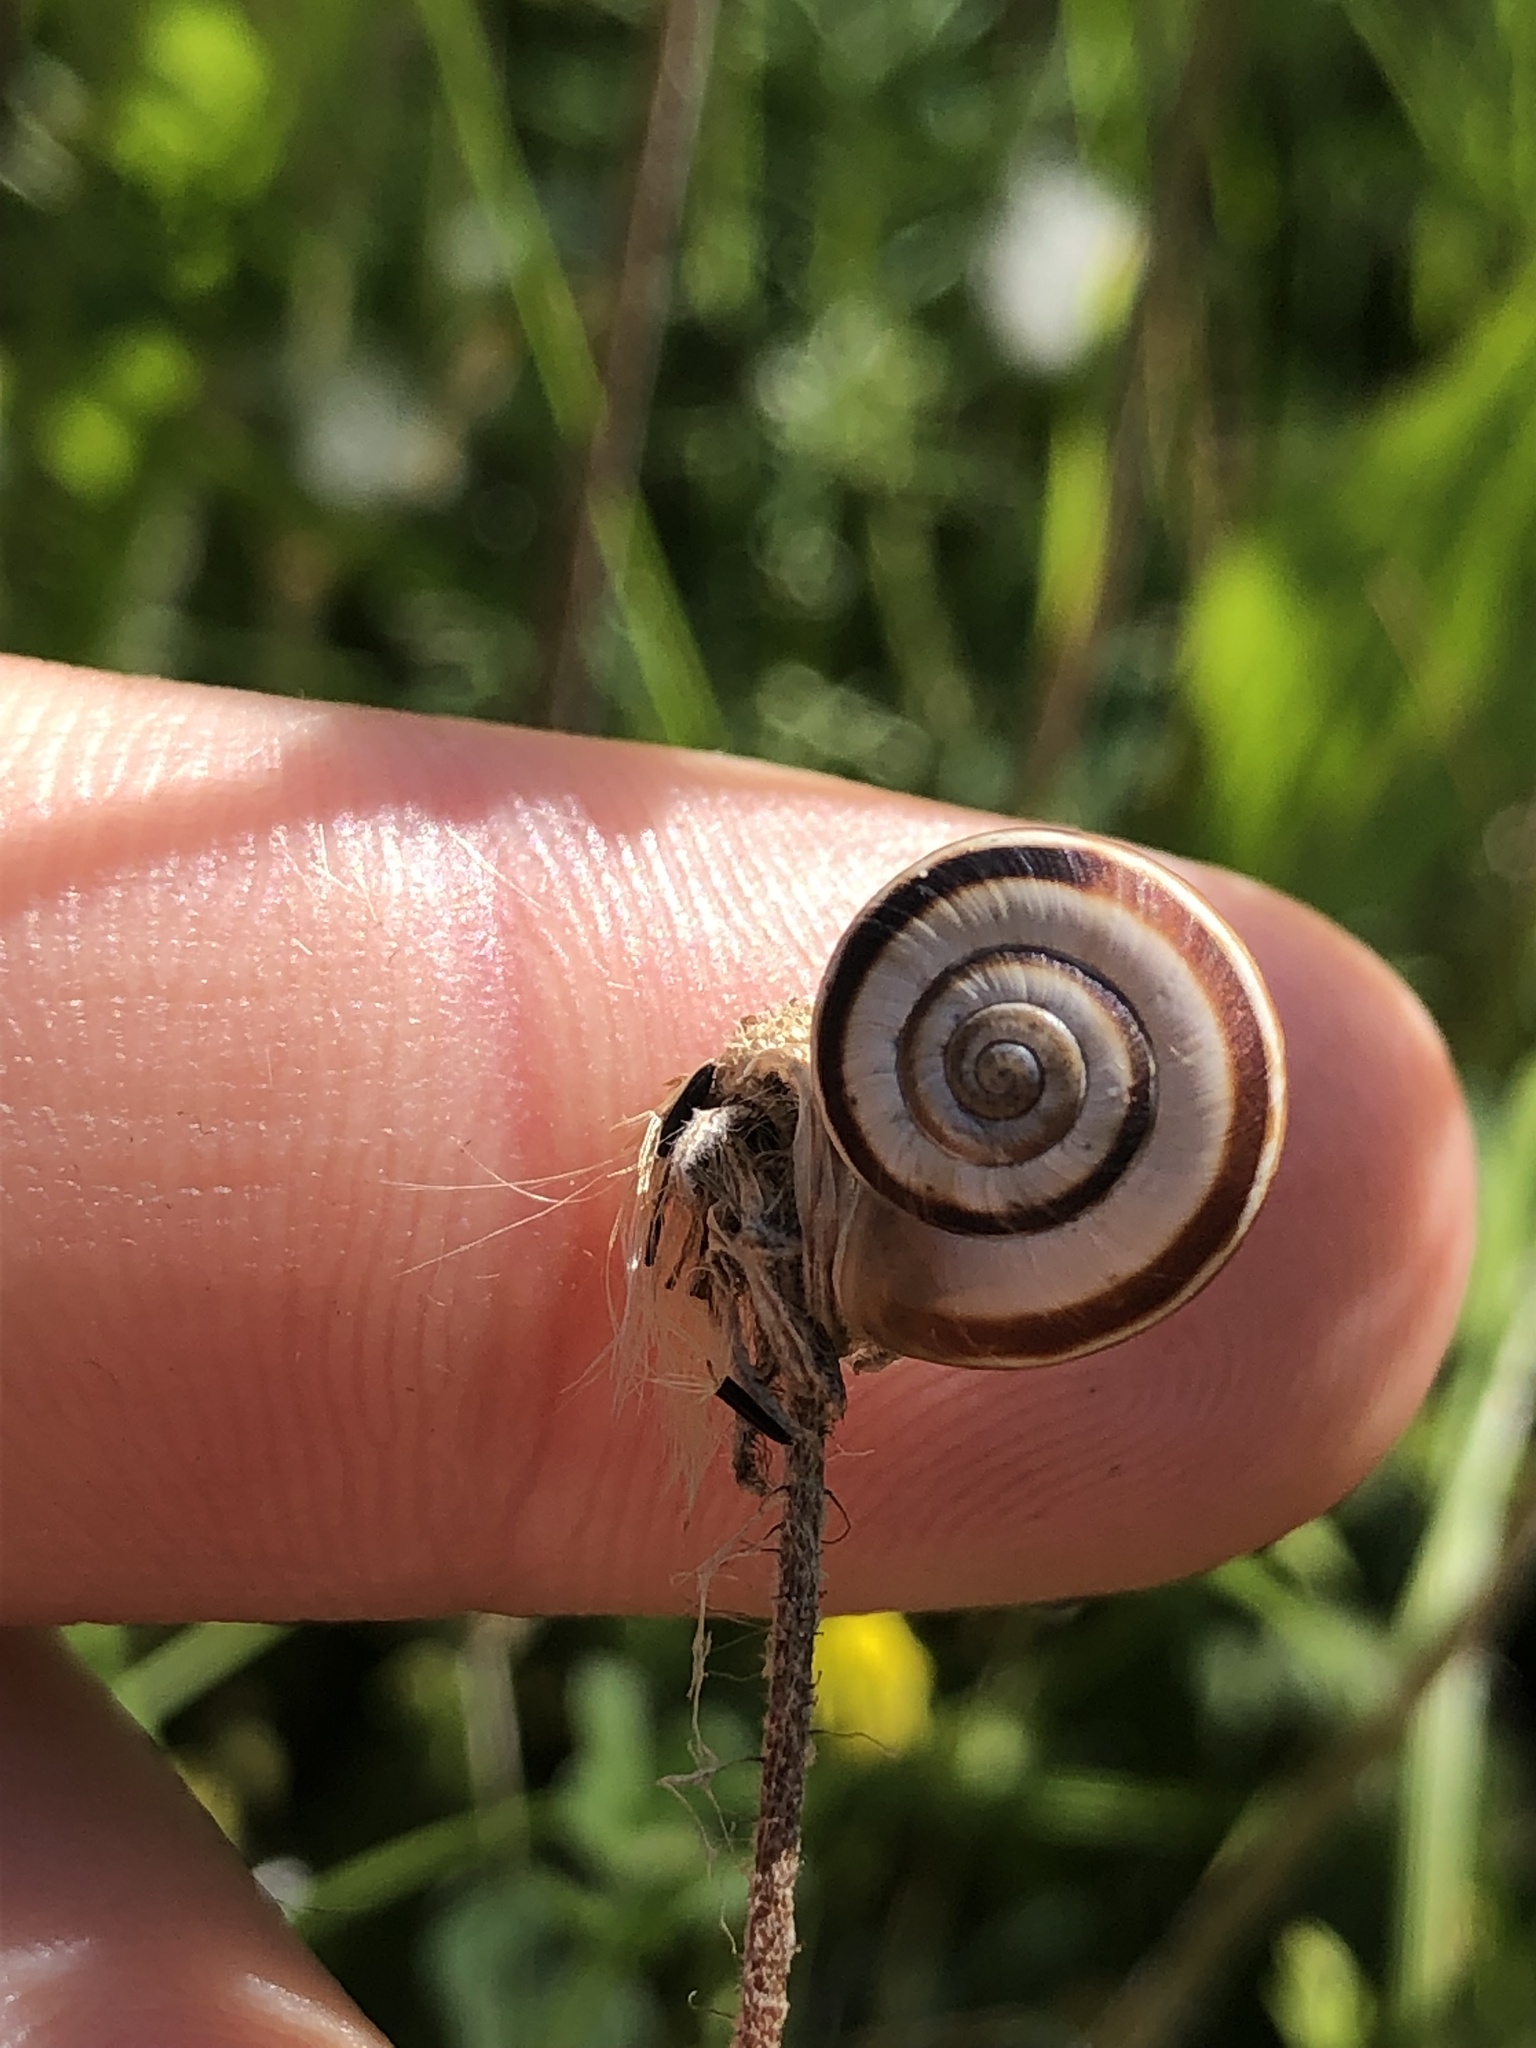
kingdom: Animalia
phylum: Mollusca
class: Gastropoda
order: Stylommatophora
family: Geomitridae
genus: Xerolenta
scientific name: Xerolenta obvia
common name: White heath snail
